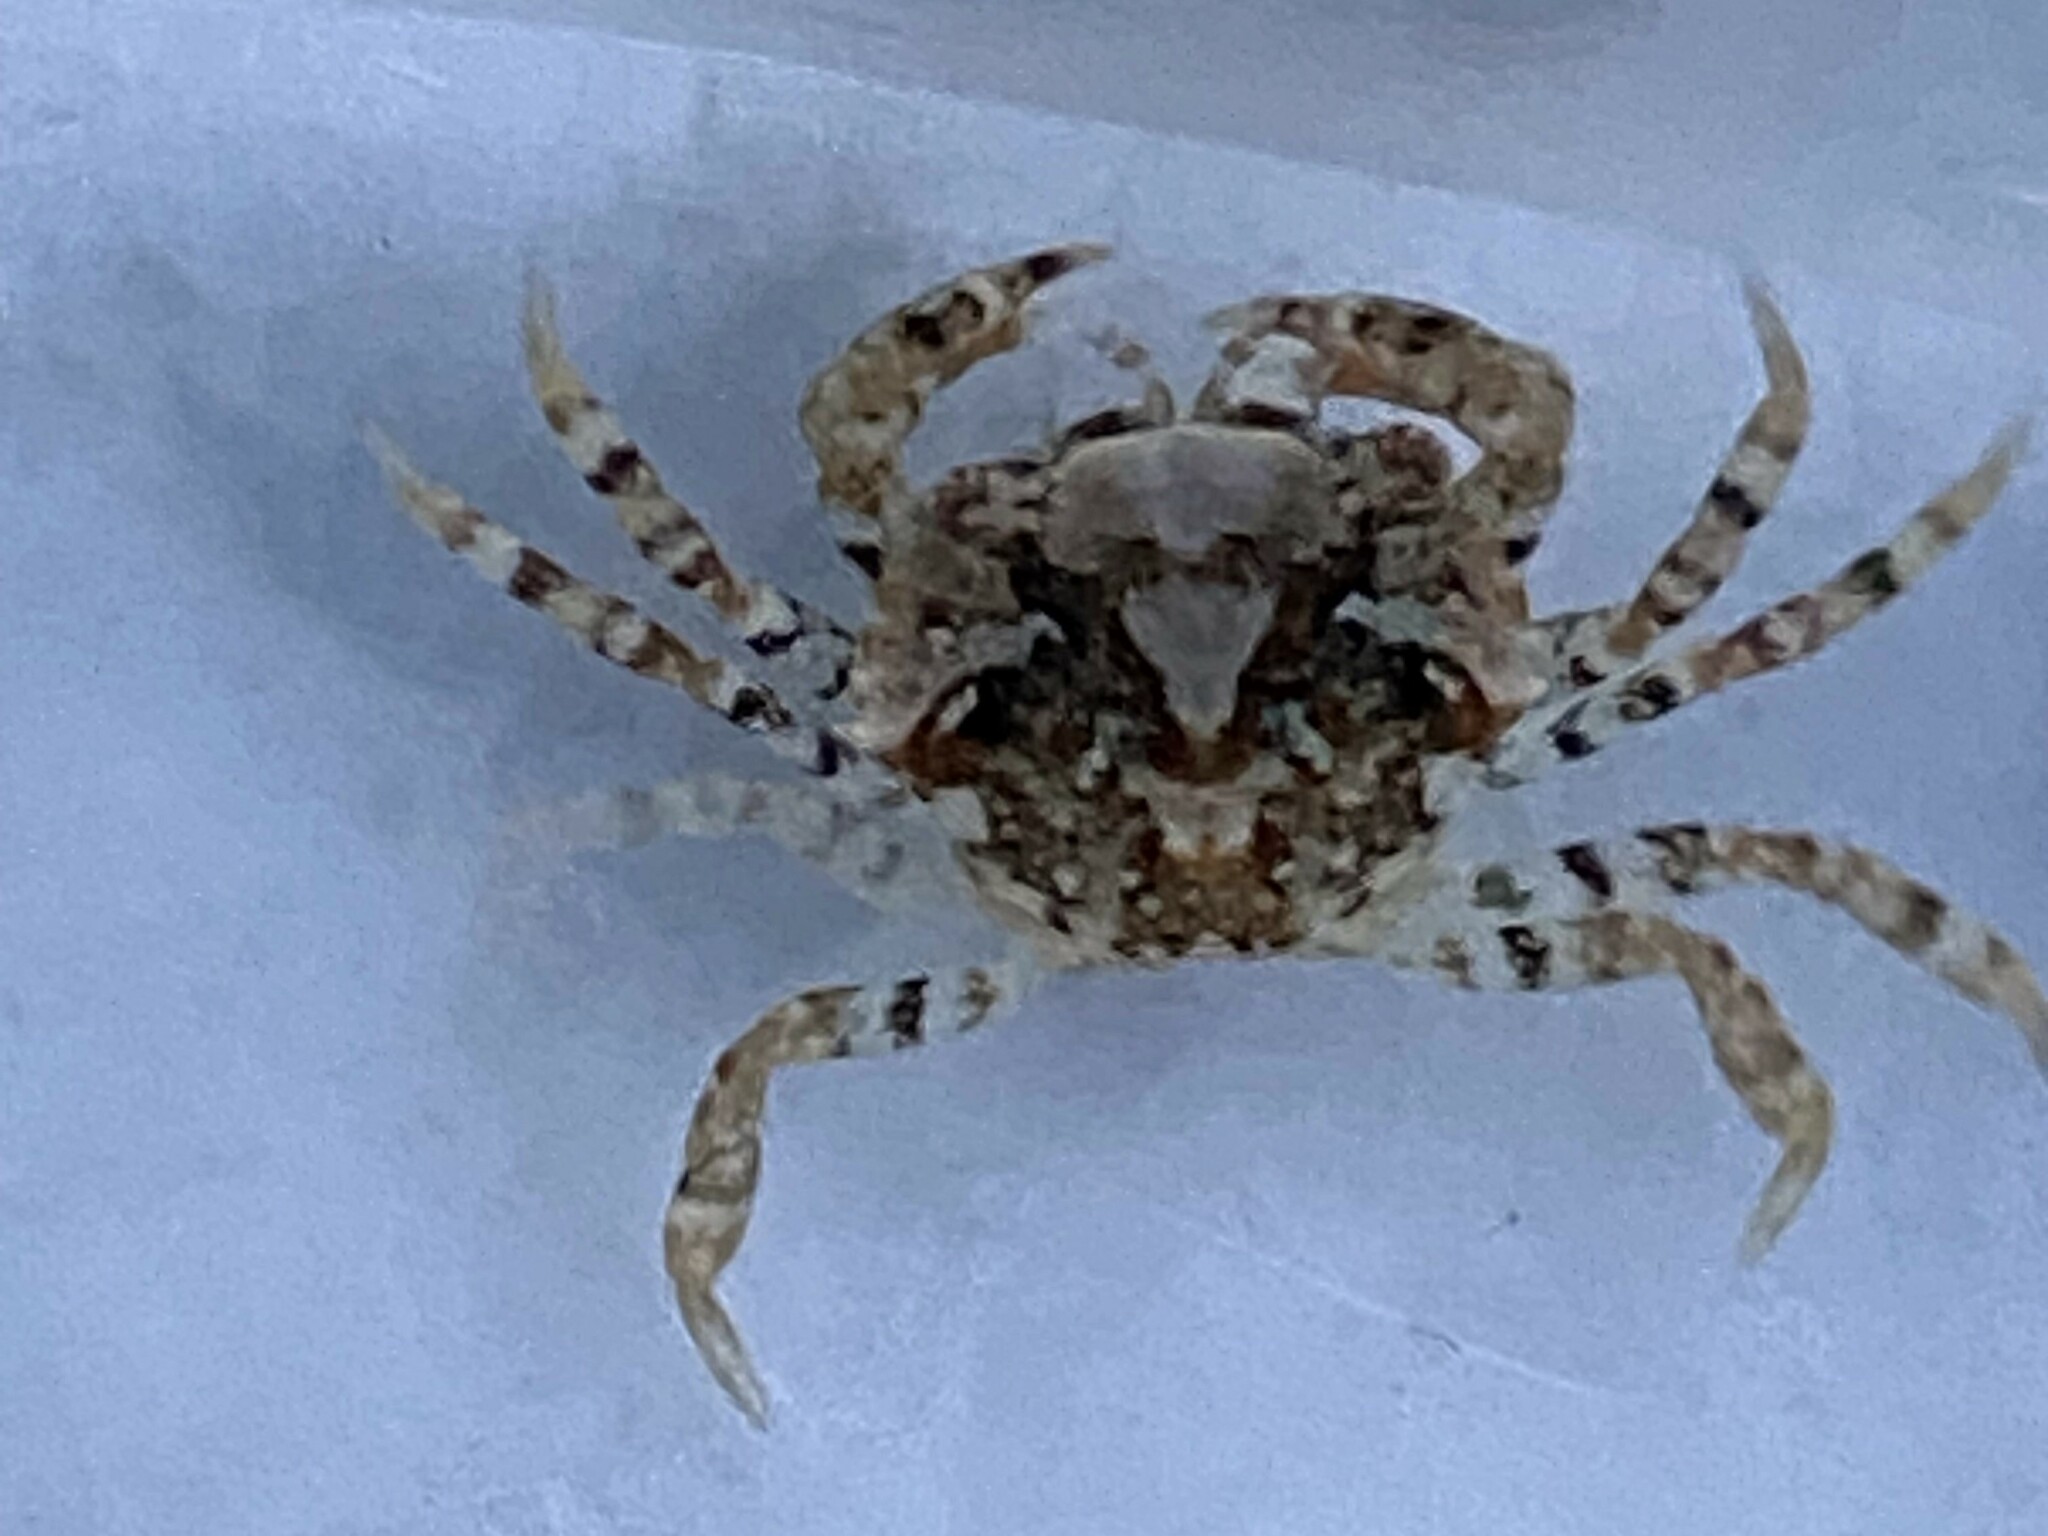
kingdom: Animalia
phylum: Arthropoda
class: Malacostraca
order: Decapoda
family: Carcinidae
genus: Carcinus
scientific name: Carcinus maenas
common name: European green crab
